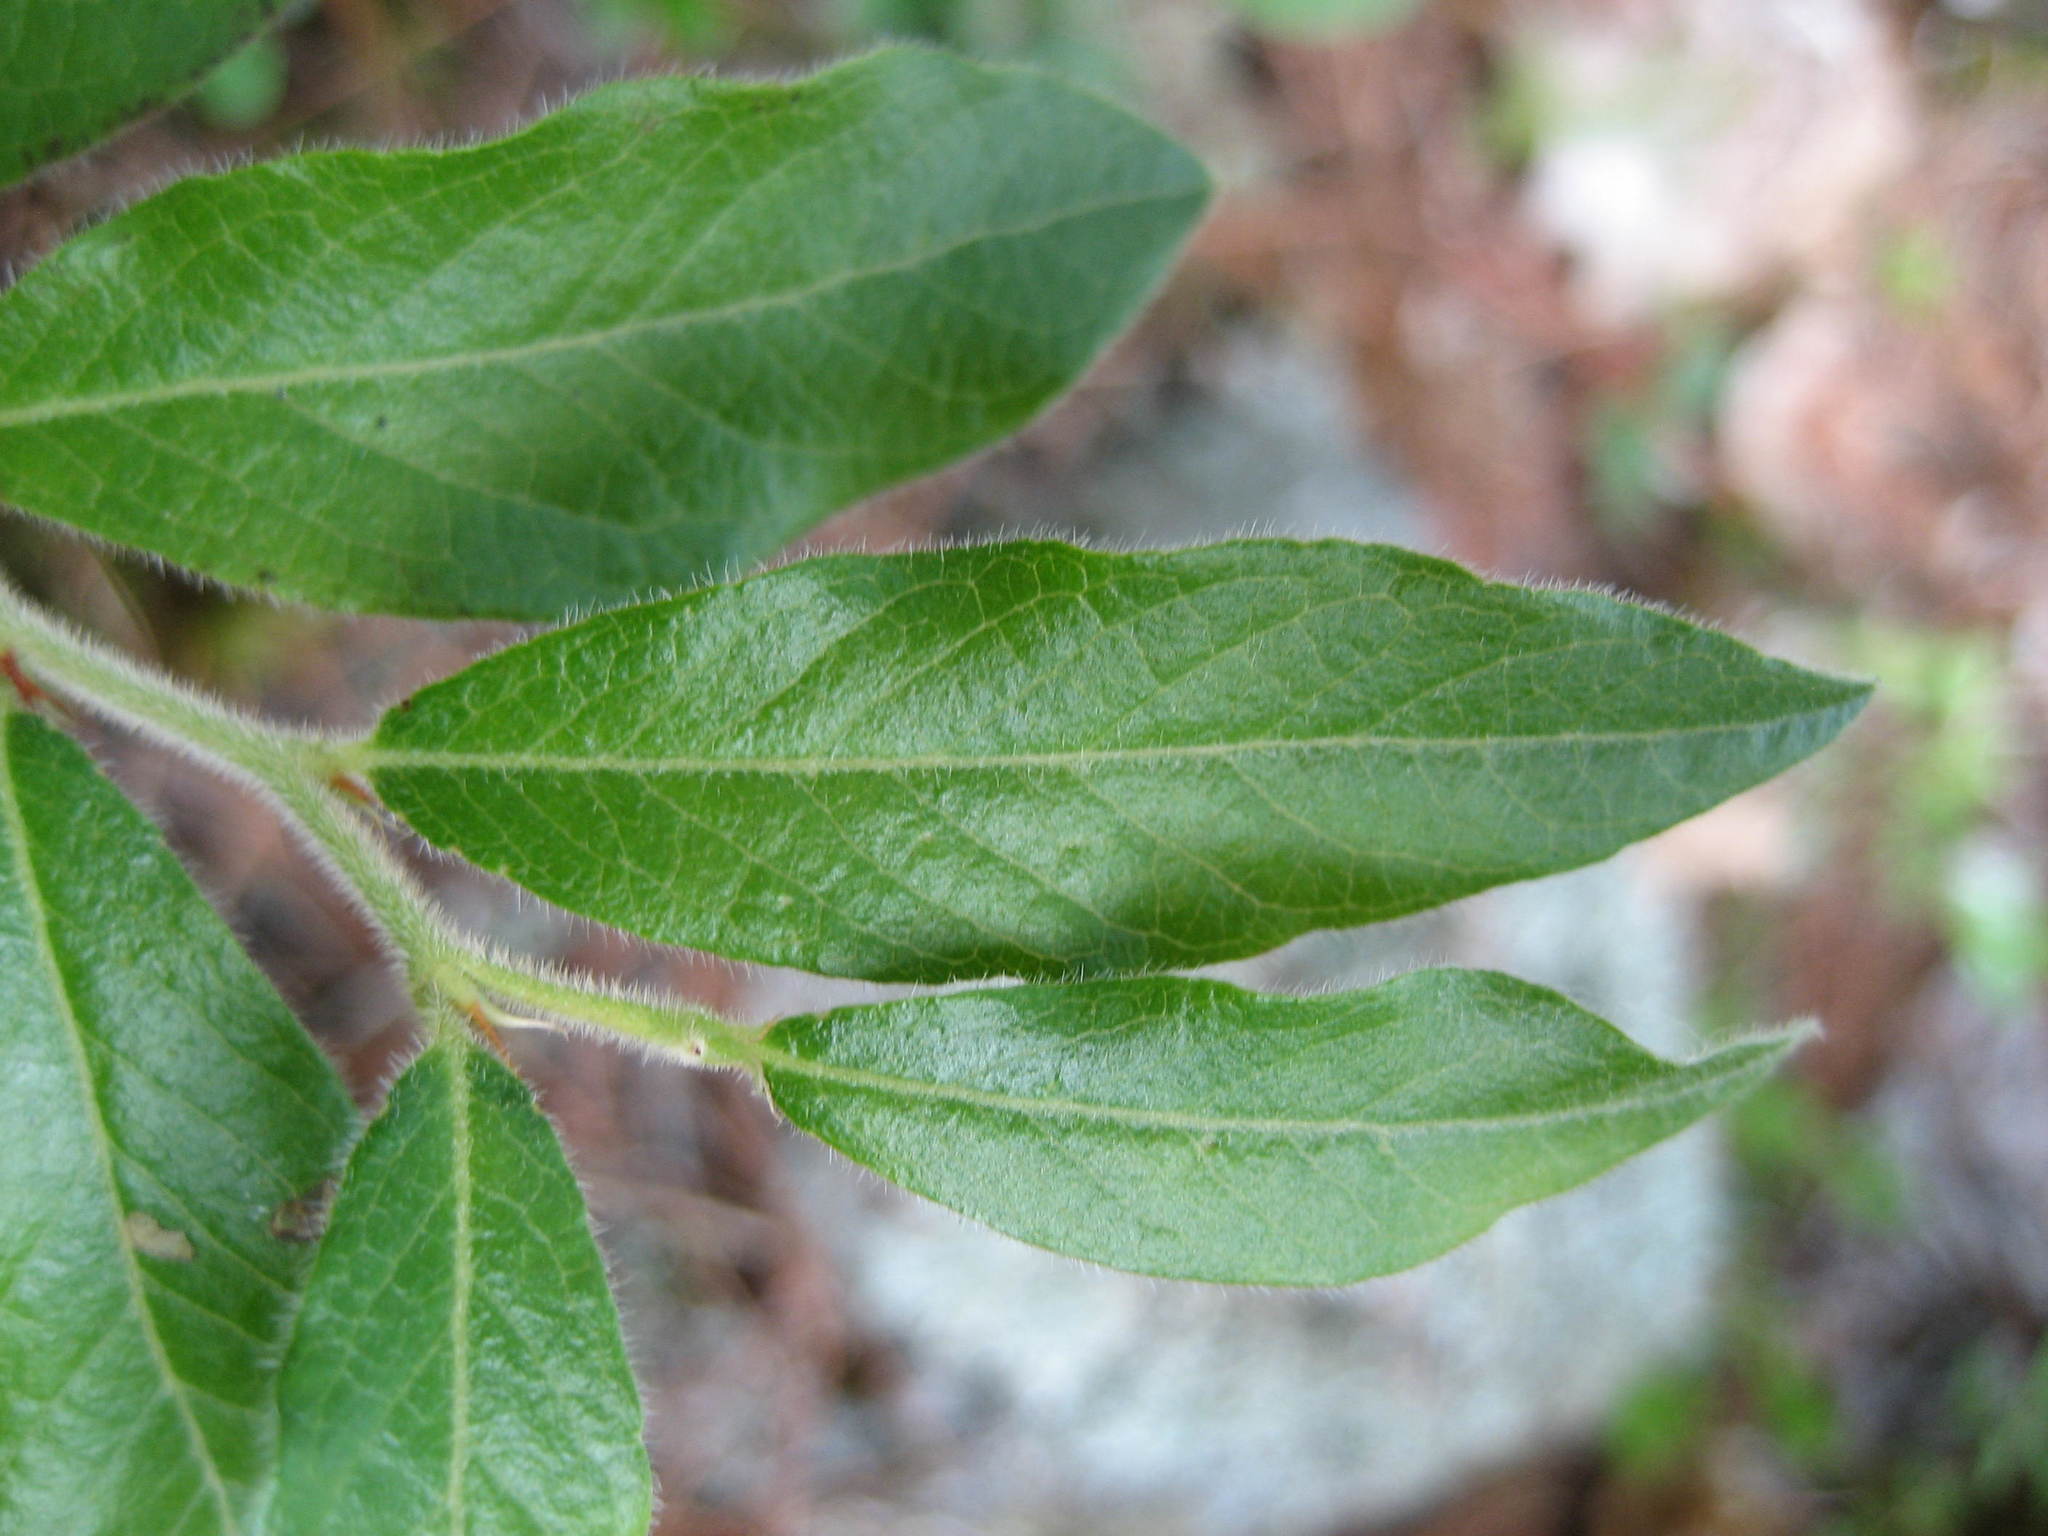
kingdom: Plantae
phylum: Tracheophyta
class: Magnoliopsida
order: Ericales
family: Ericaceae
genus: Vaccinium
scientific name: Vaccinium myrtilloides
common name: Canada blueberry
